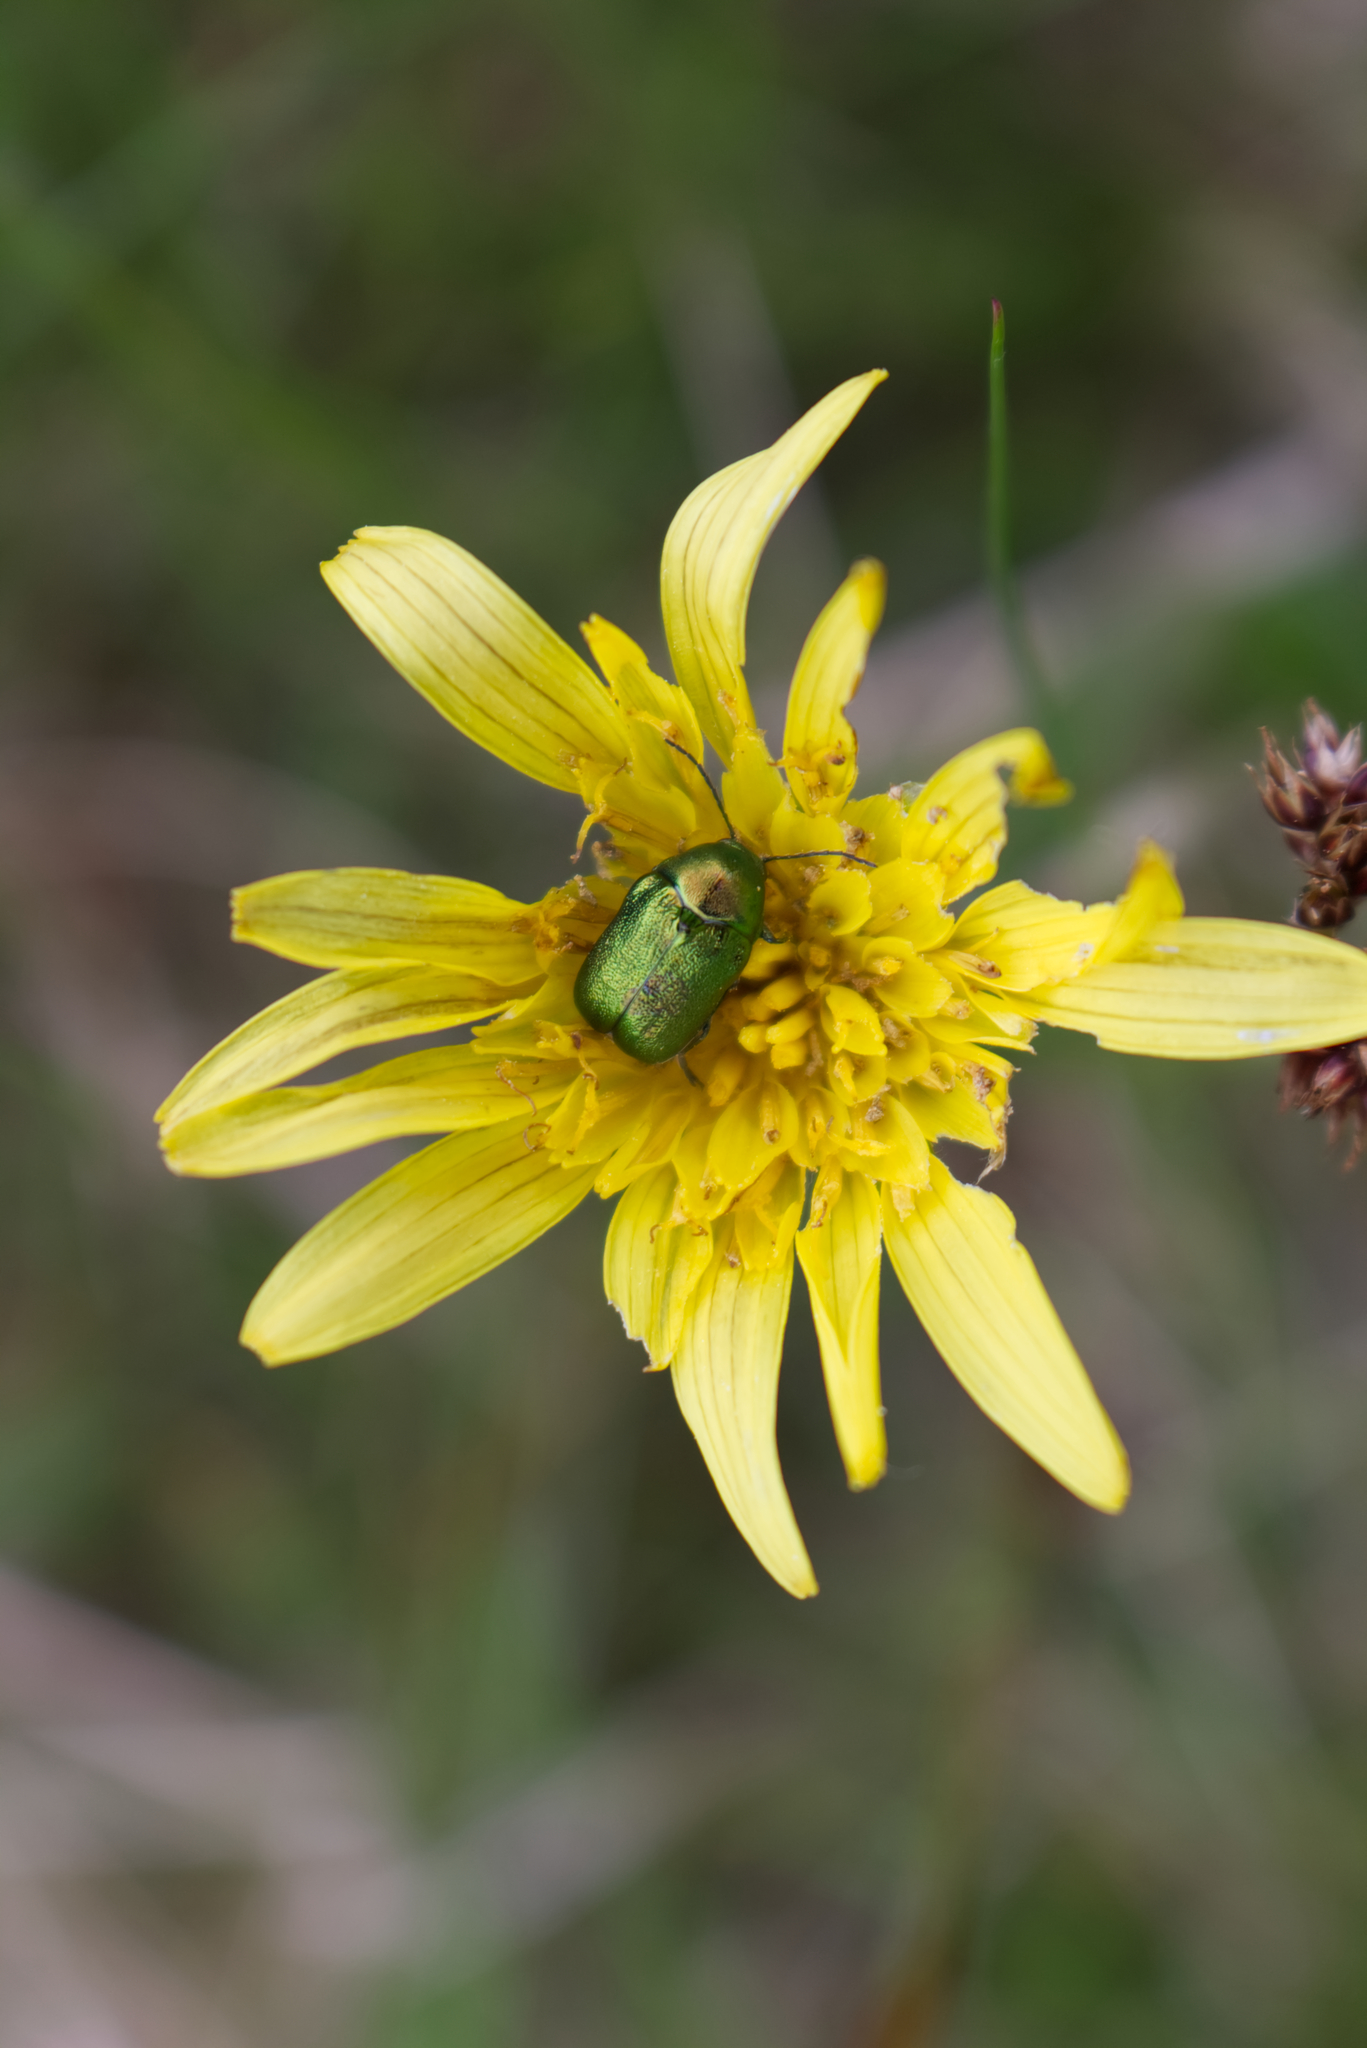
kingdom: Animalia
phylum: Arthropoda
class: Insecta
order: Coleoptera
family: Chrysomelidae
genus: Cryptocephalus
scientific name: Cryptocephalus
